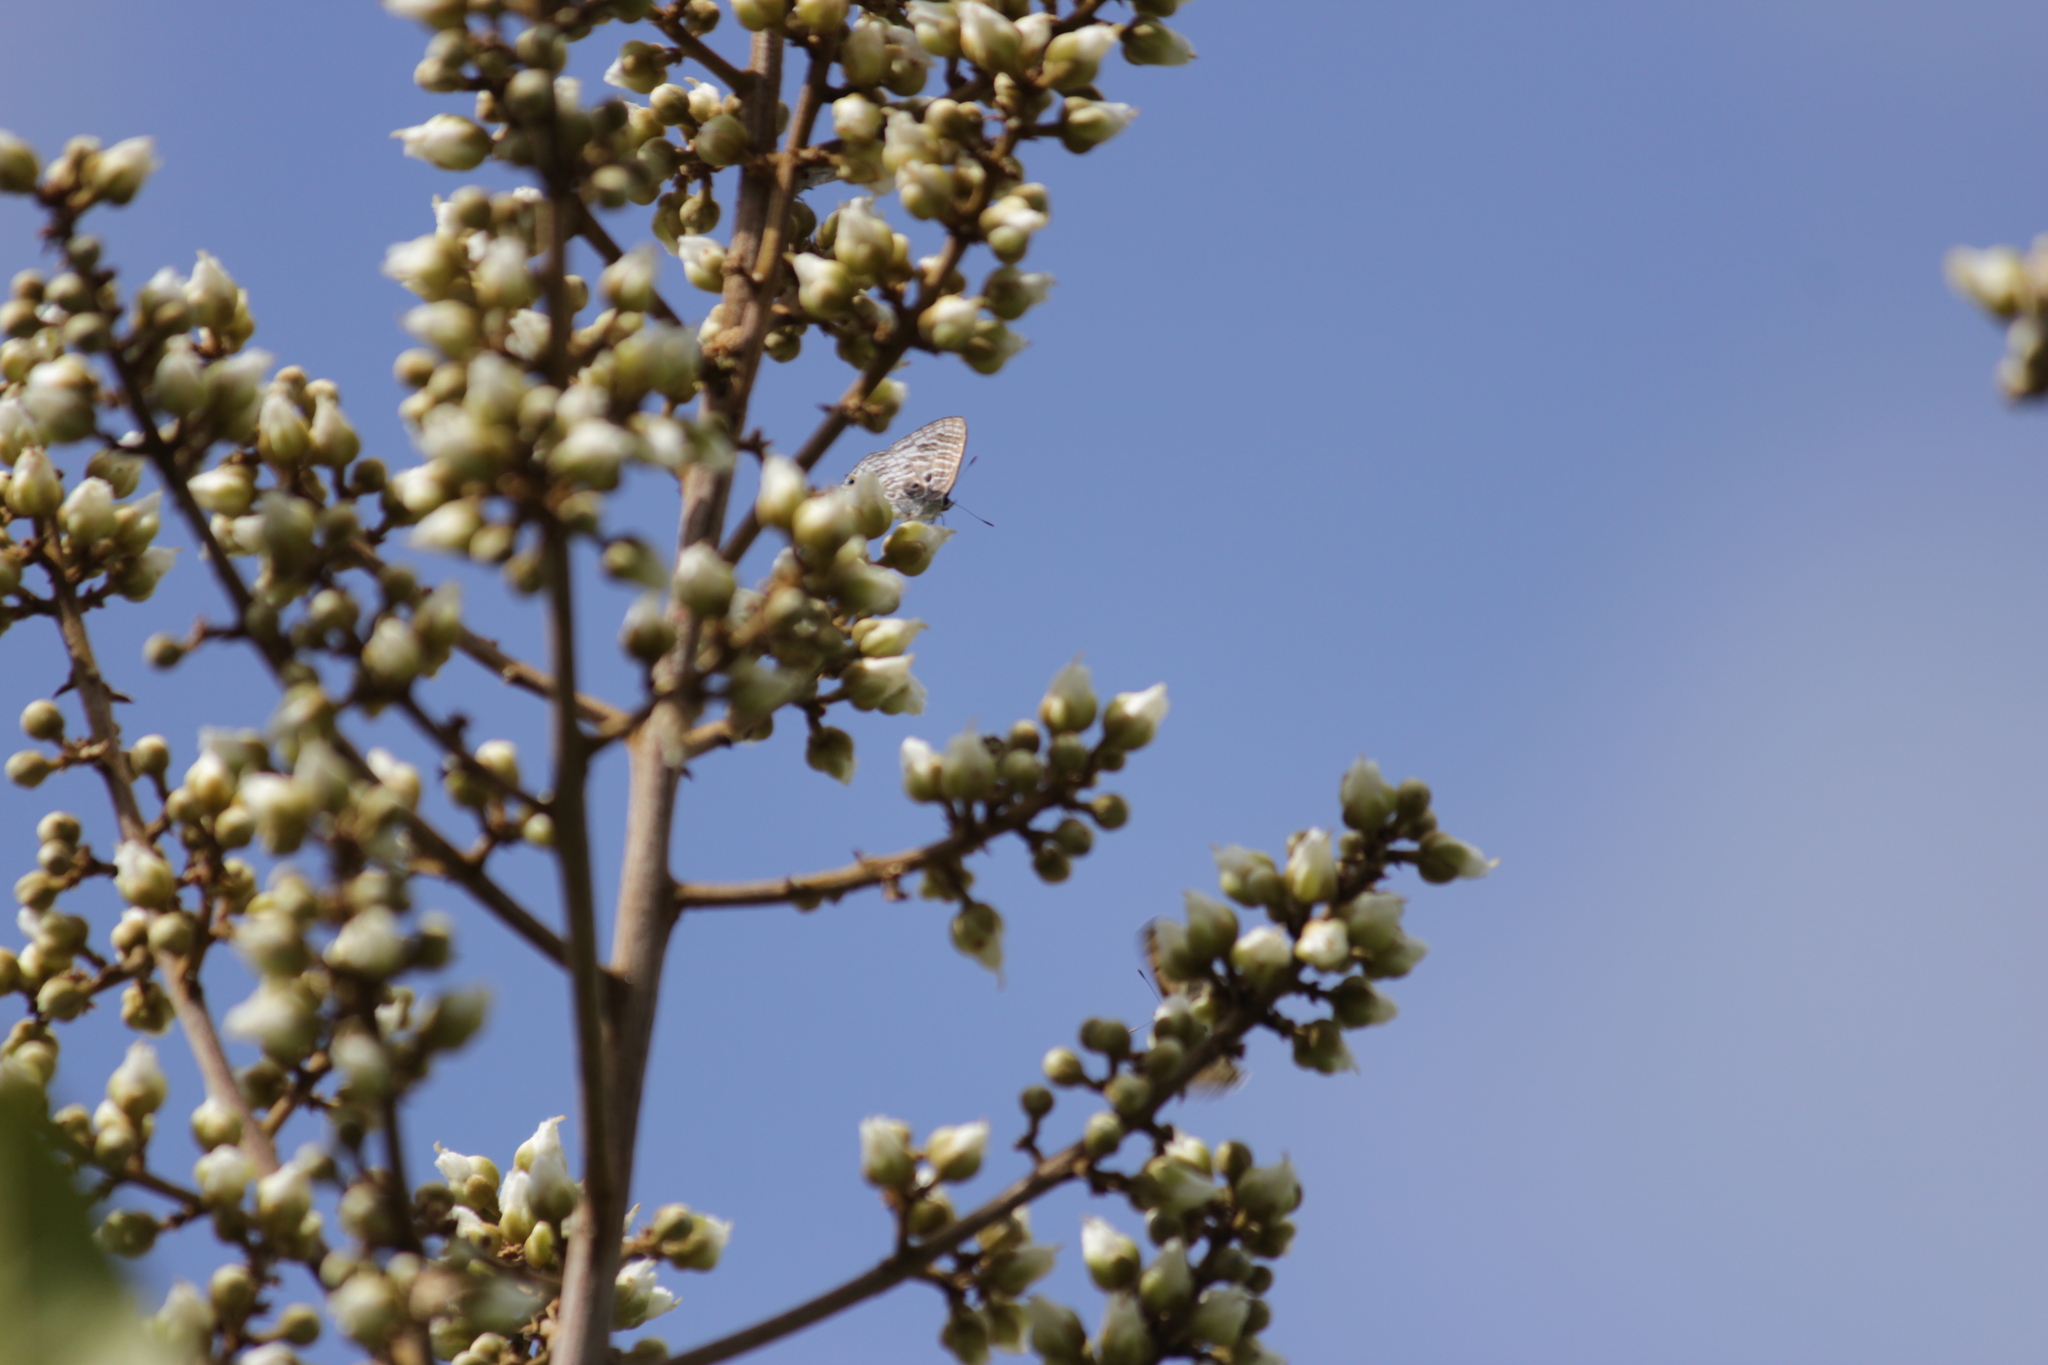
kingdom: Animalia
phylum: Arthropoda
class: Insecta
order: Lepidoptera
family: Lycaenidae
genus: Anthene
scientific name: Anthene lemnos
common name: Large ciliate blue
